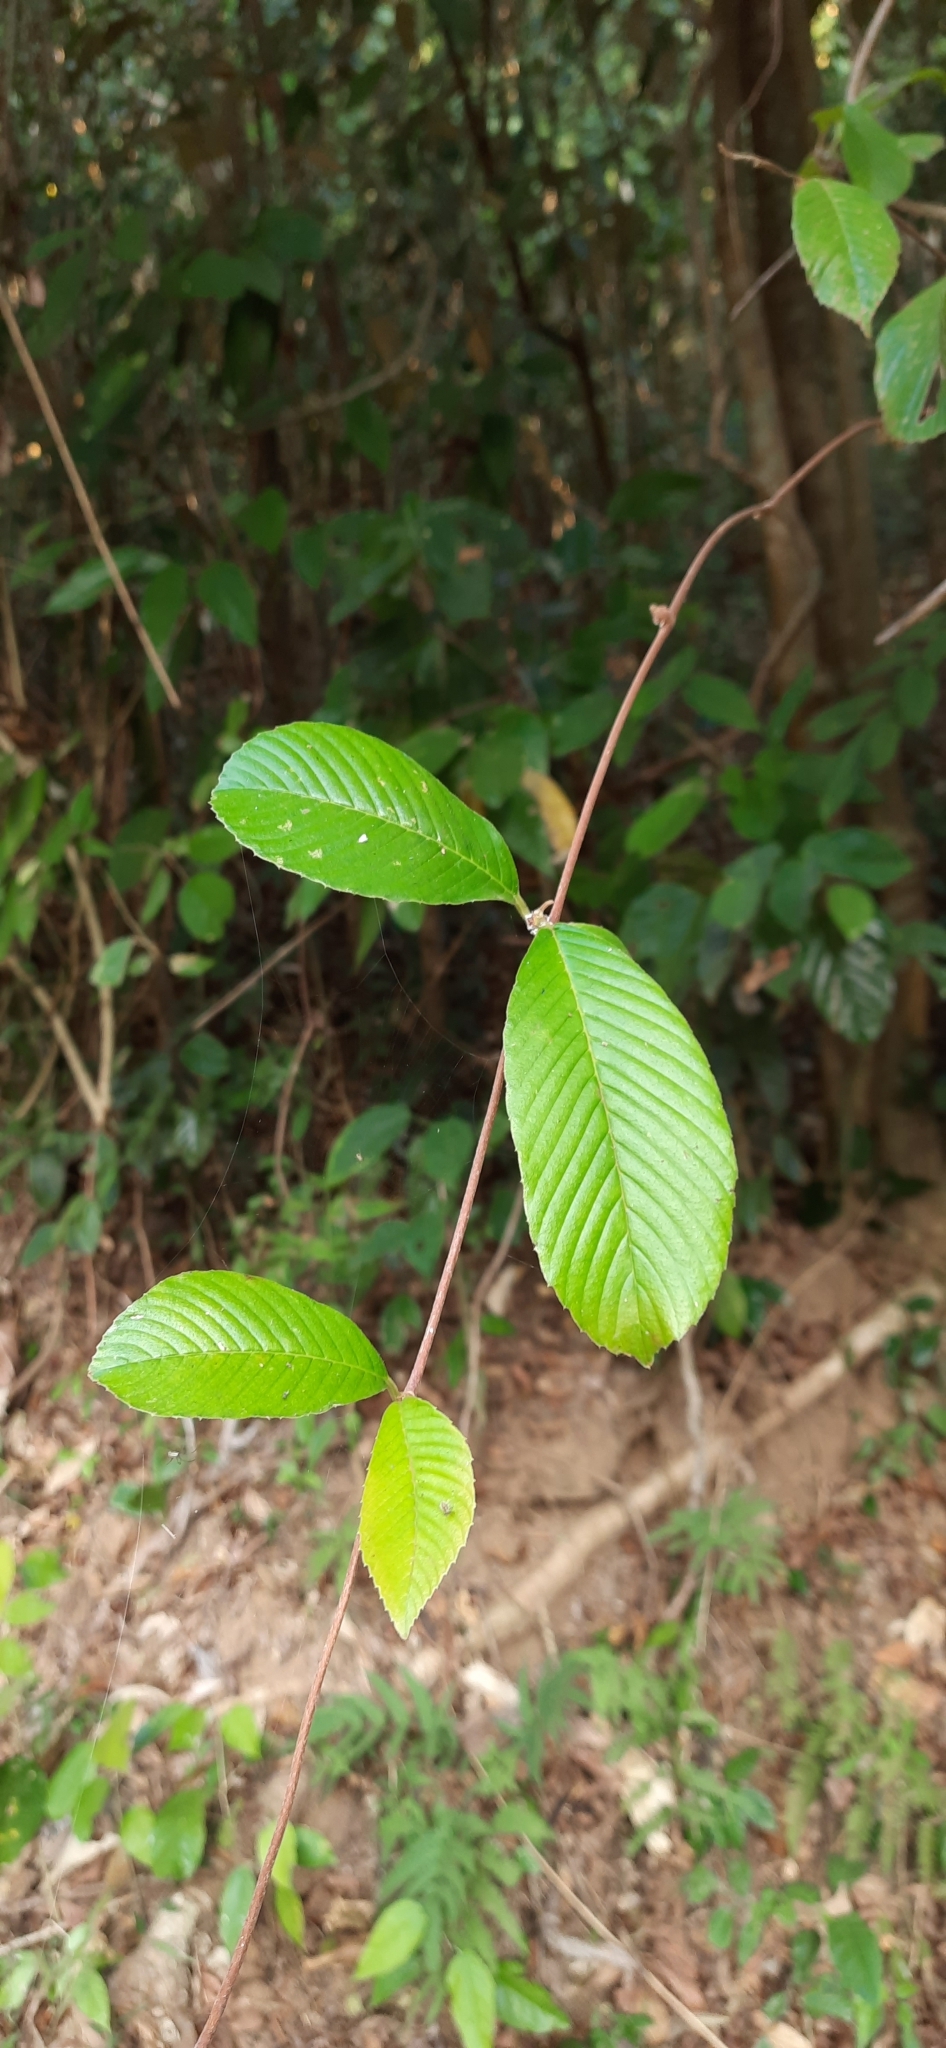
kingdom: Plantae
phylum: Tracheophyta
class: Magnoliopsida
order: Dilleniales
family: Dilleniaceae
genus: Tetracera
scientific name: Tetracera sarmentosa
